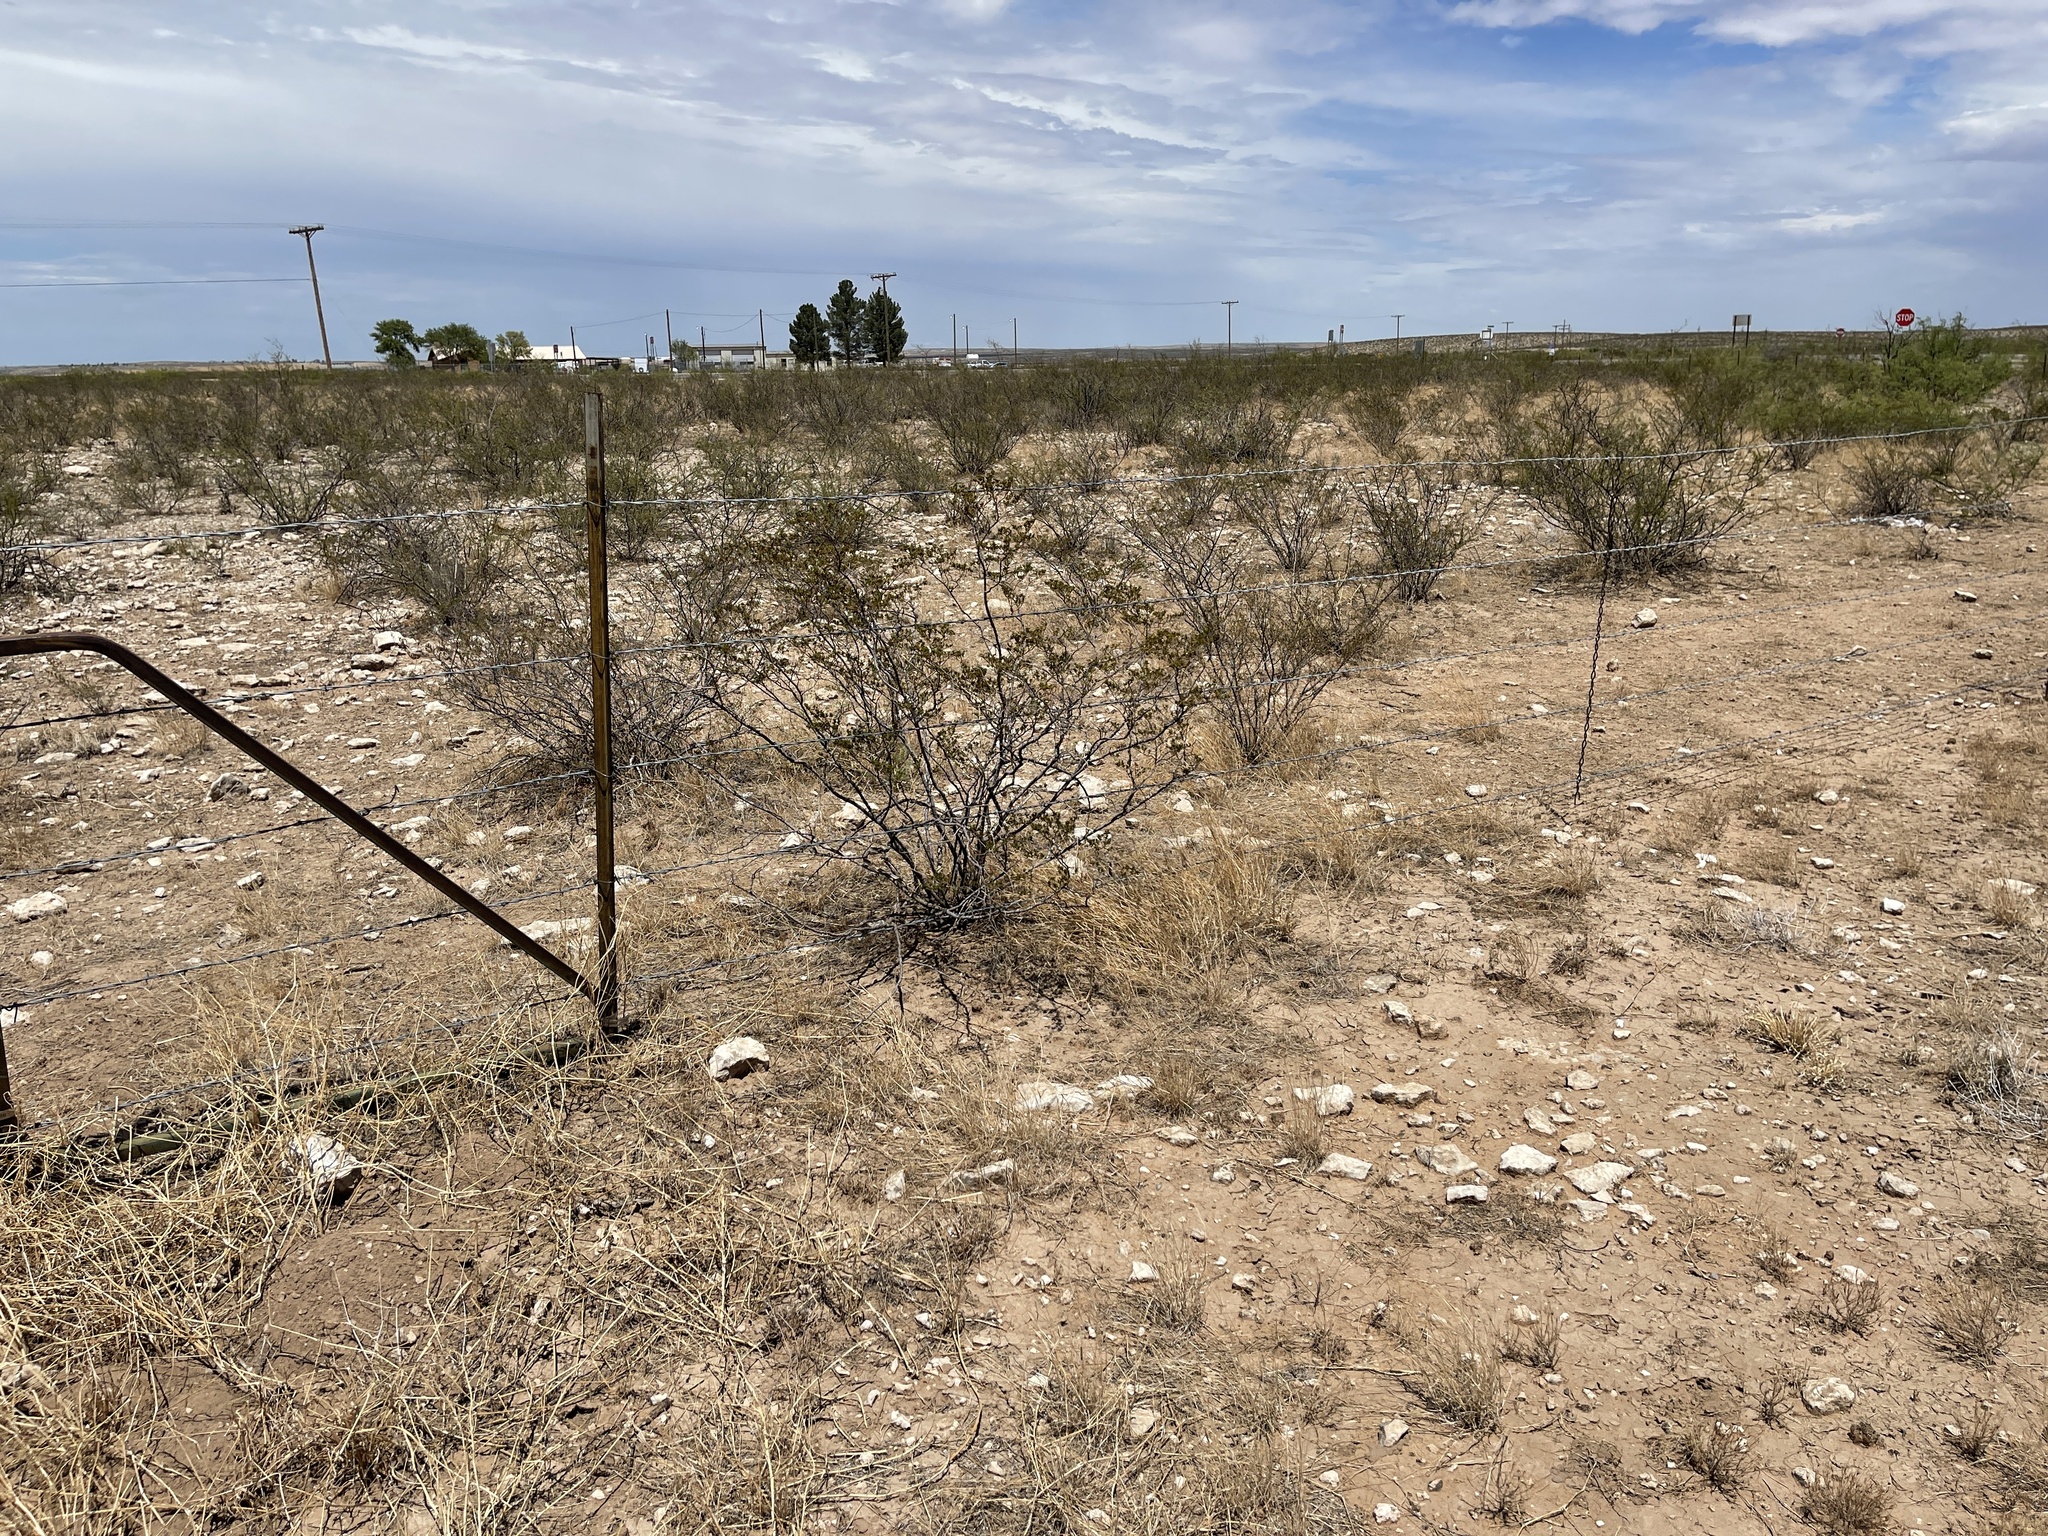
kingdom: Plantae
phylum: Tracheophyta
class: Magnoliopsida
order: Zygophyllales
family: Zygophyllaceae
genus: Larrea
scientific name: Larrea tridentata
